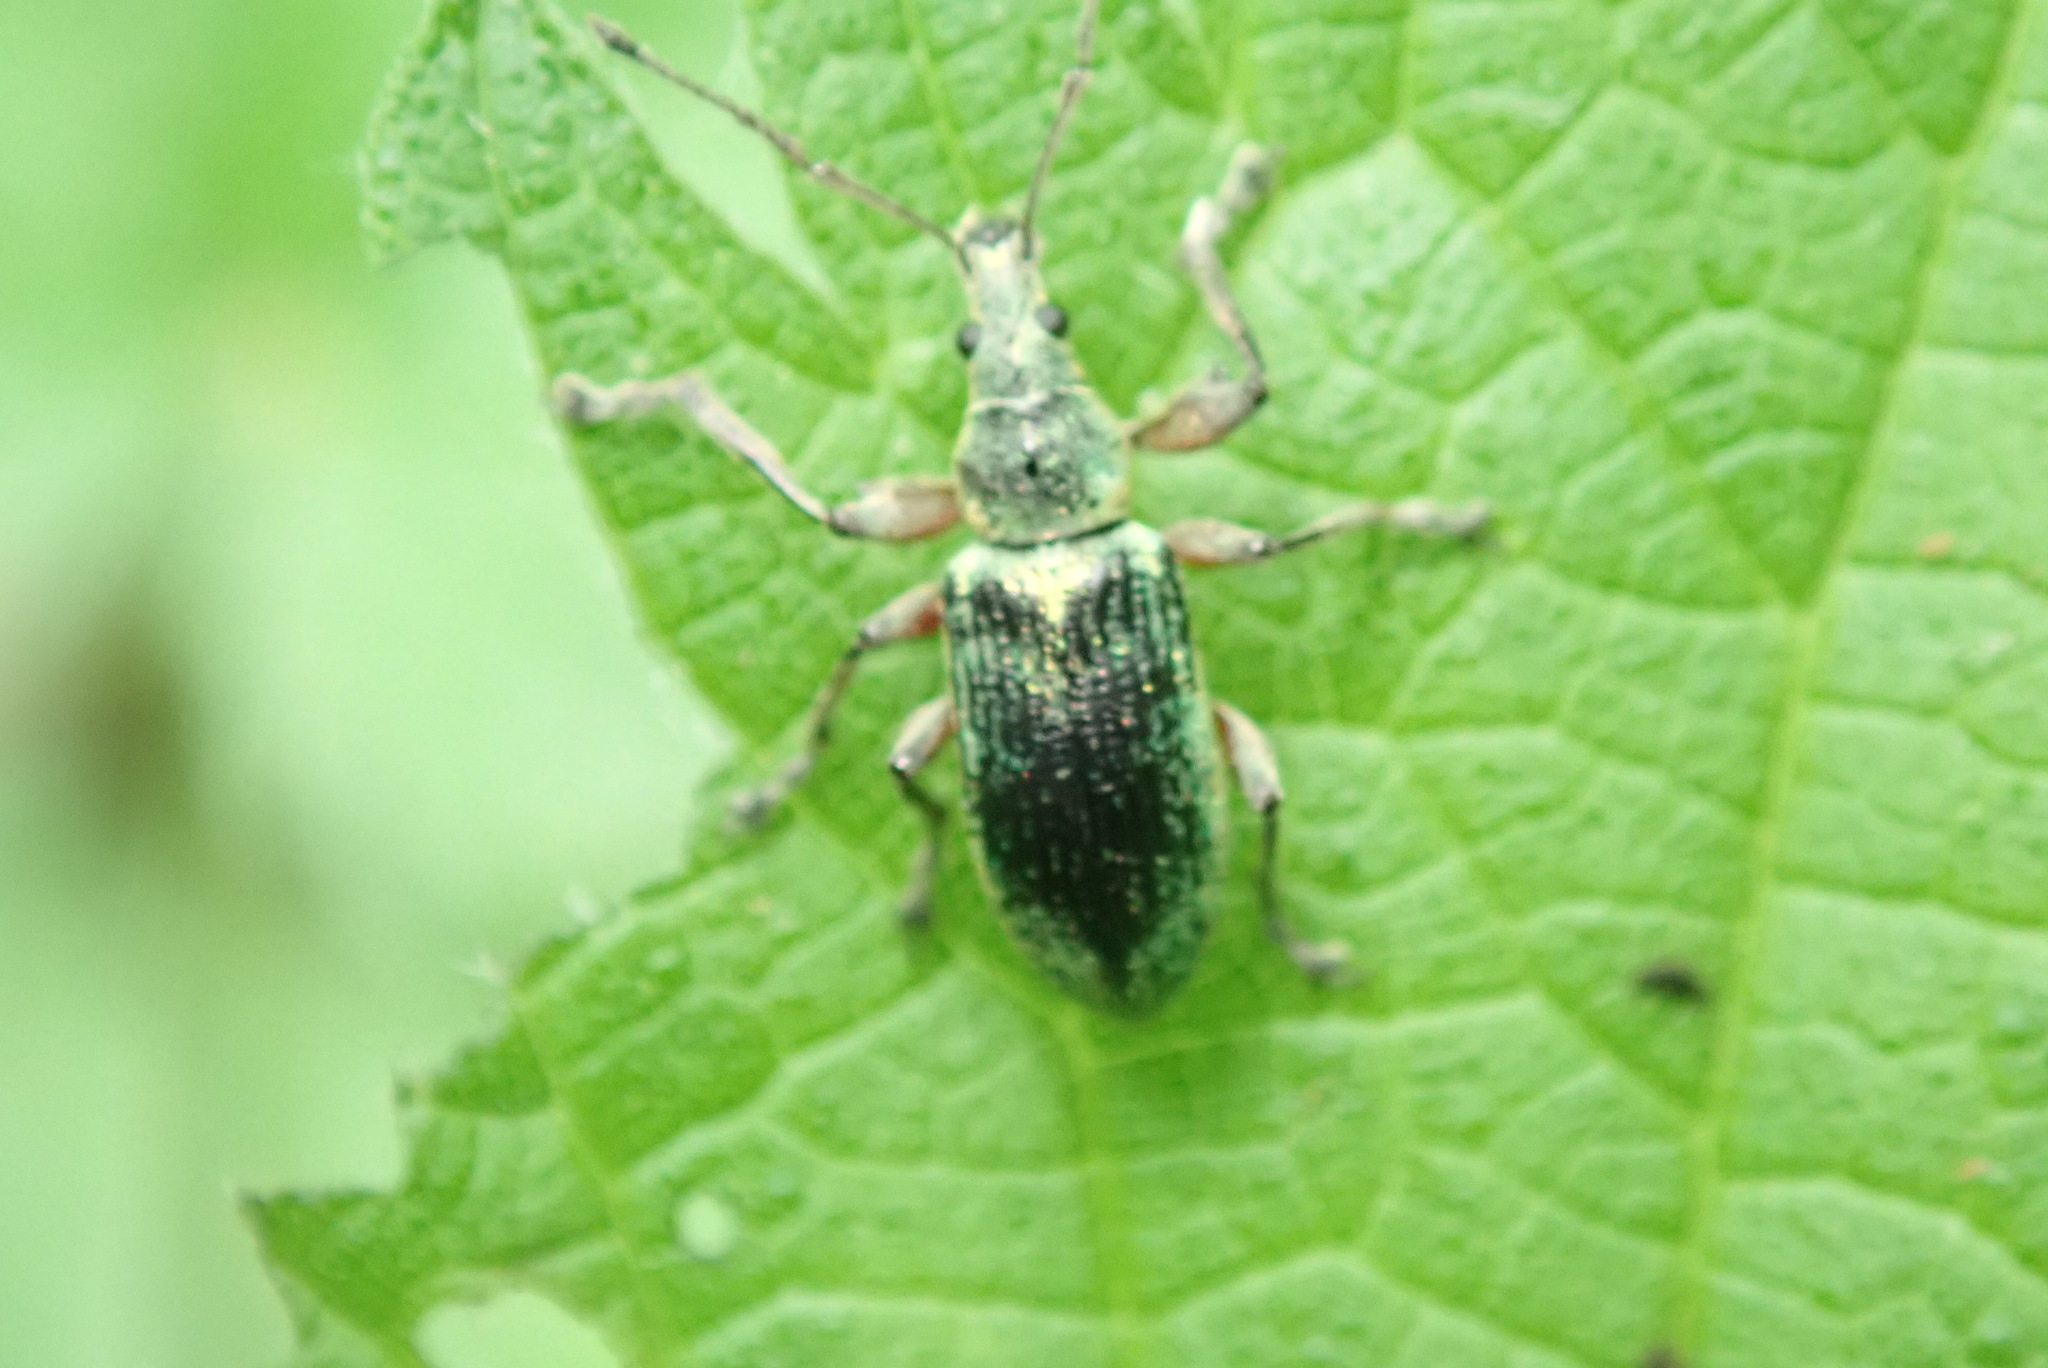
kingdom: Animalia
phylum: Arthropoda
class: Insecta
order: Coleoptera
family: Curculionidae
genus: Phyllobius
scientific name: Phyllobius pomaceus
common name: Green nettle weevil
